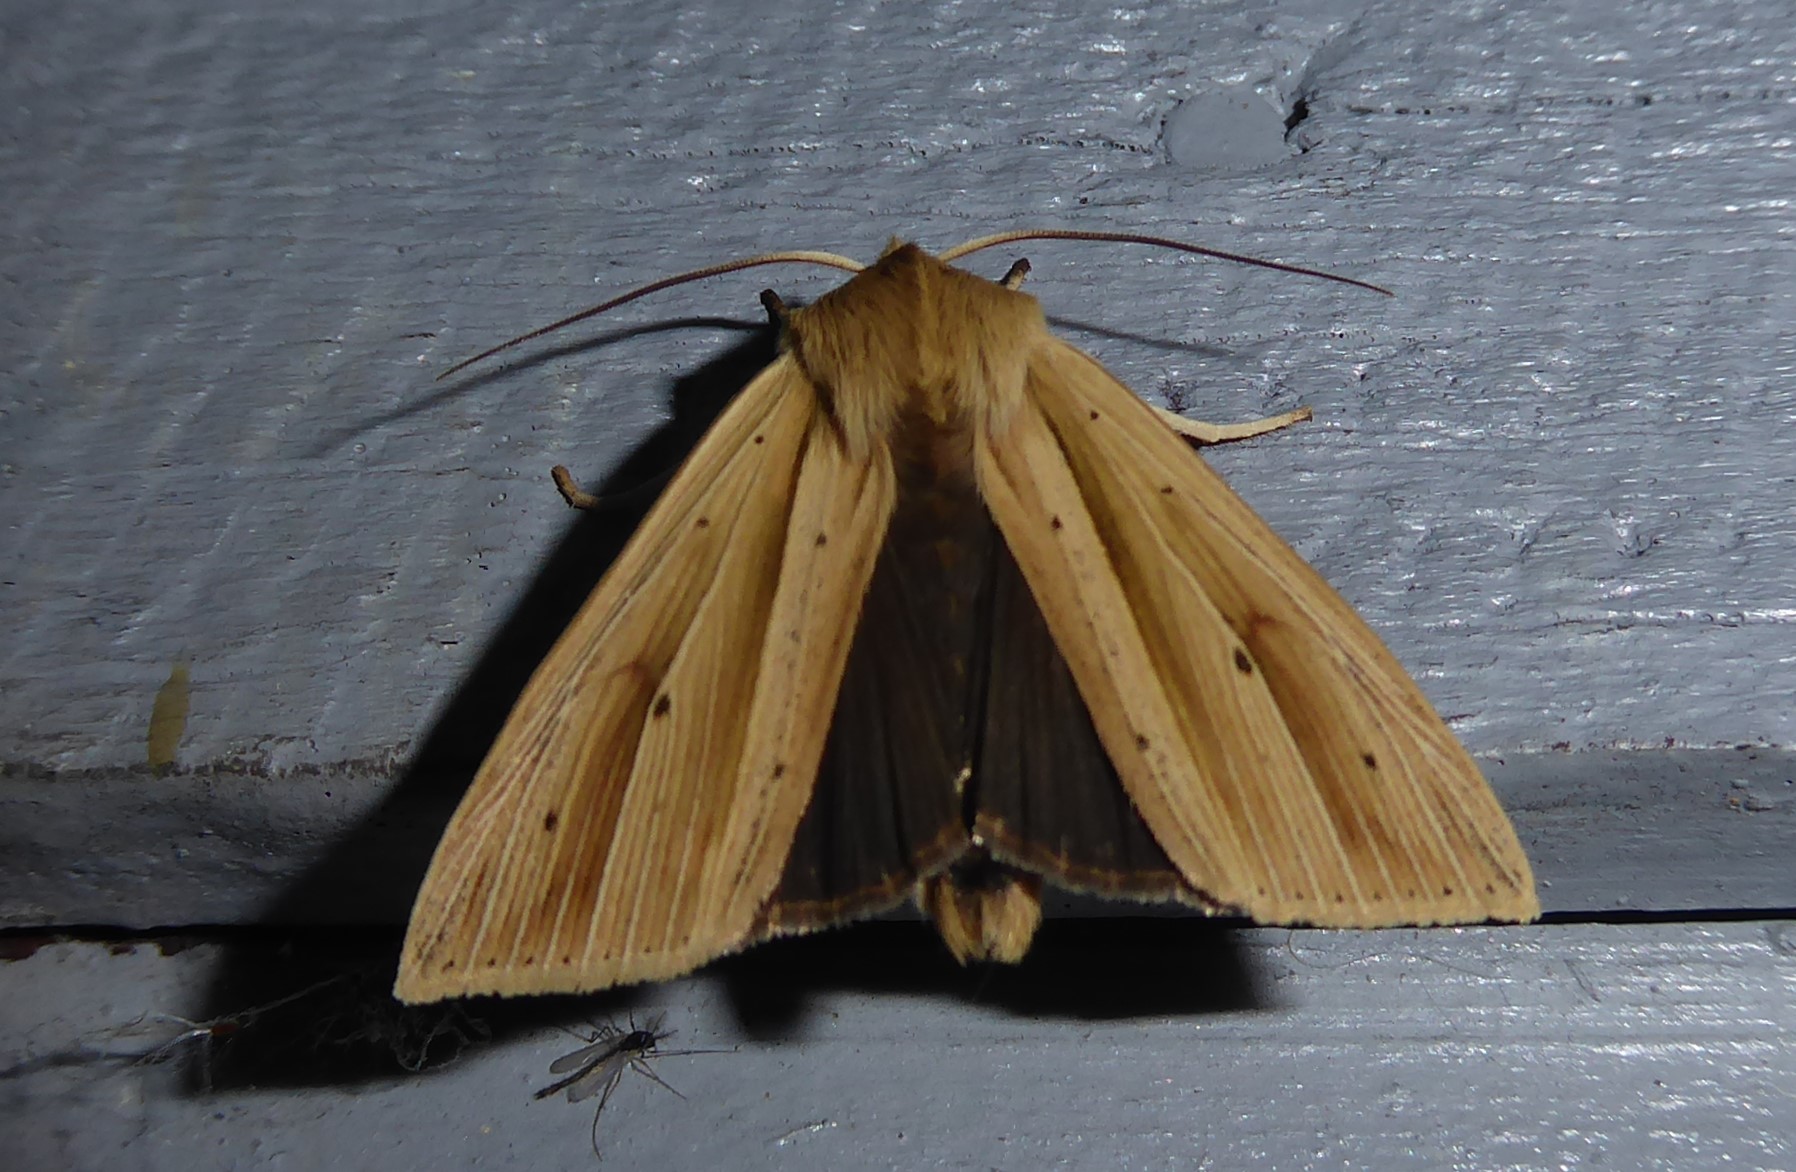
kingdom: Animalia
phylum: Arthropoda
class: Insecta
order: Lepidoptera
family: Noctuidae
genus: Ichneutica
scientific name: Ichneutica sulcana
